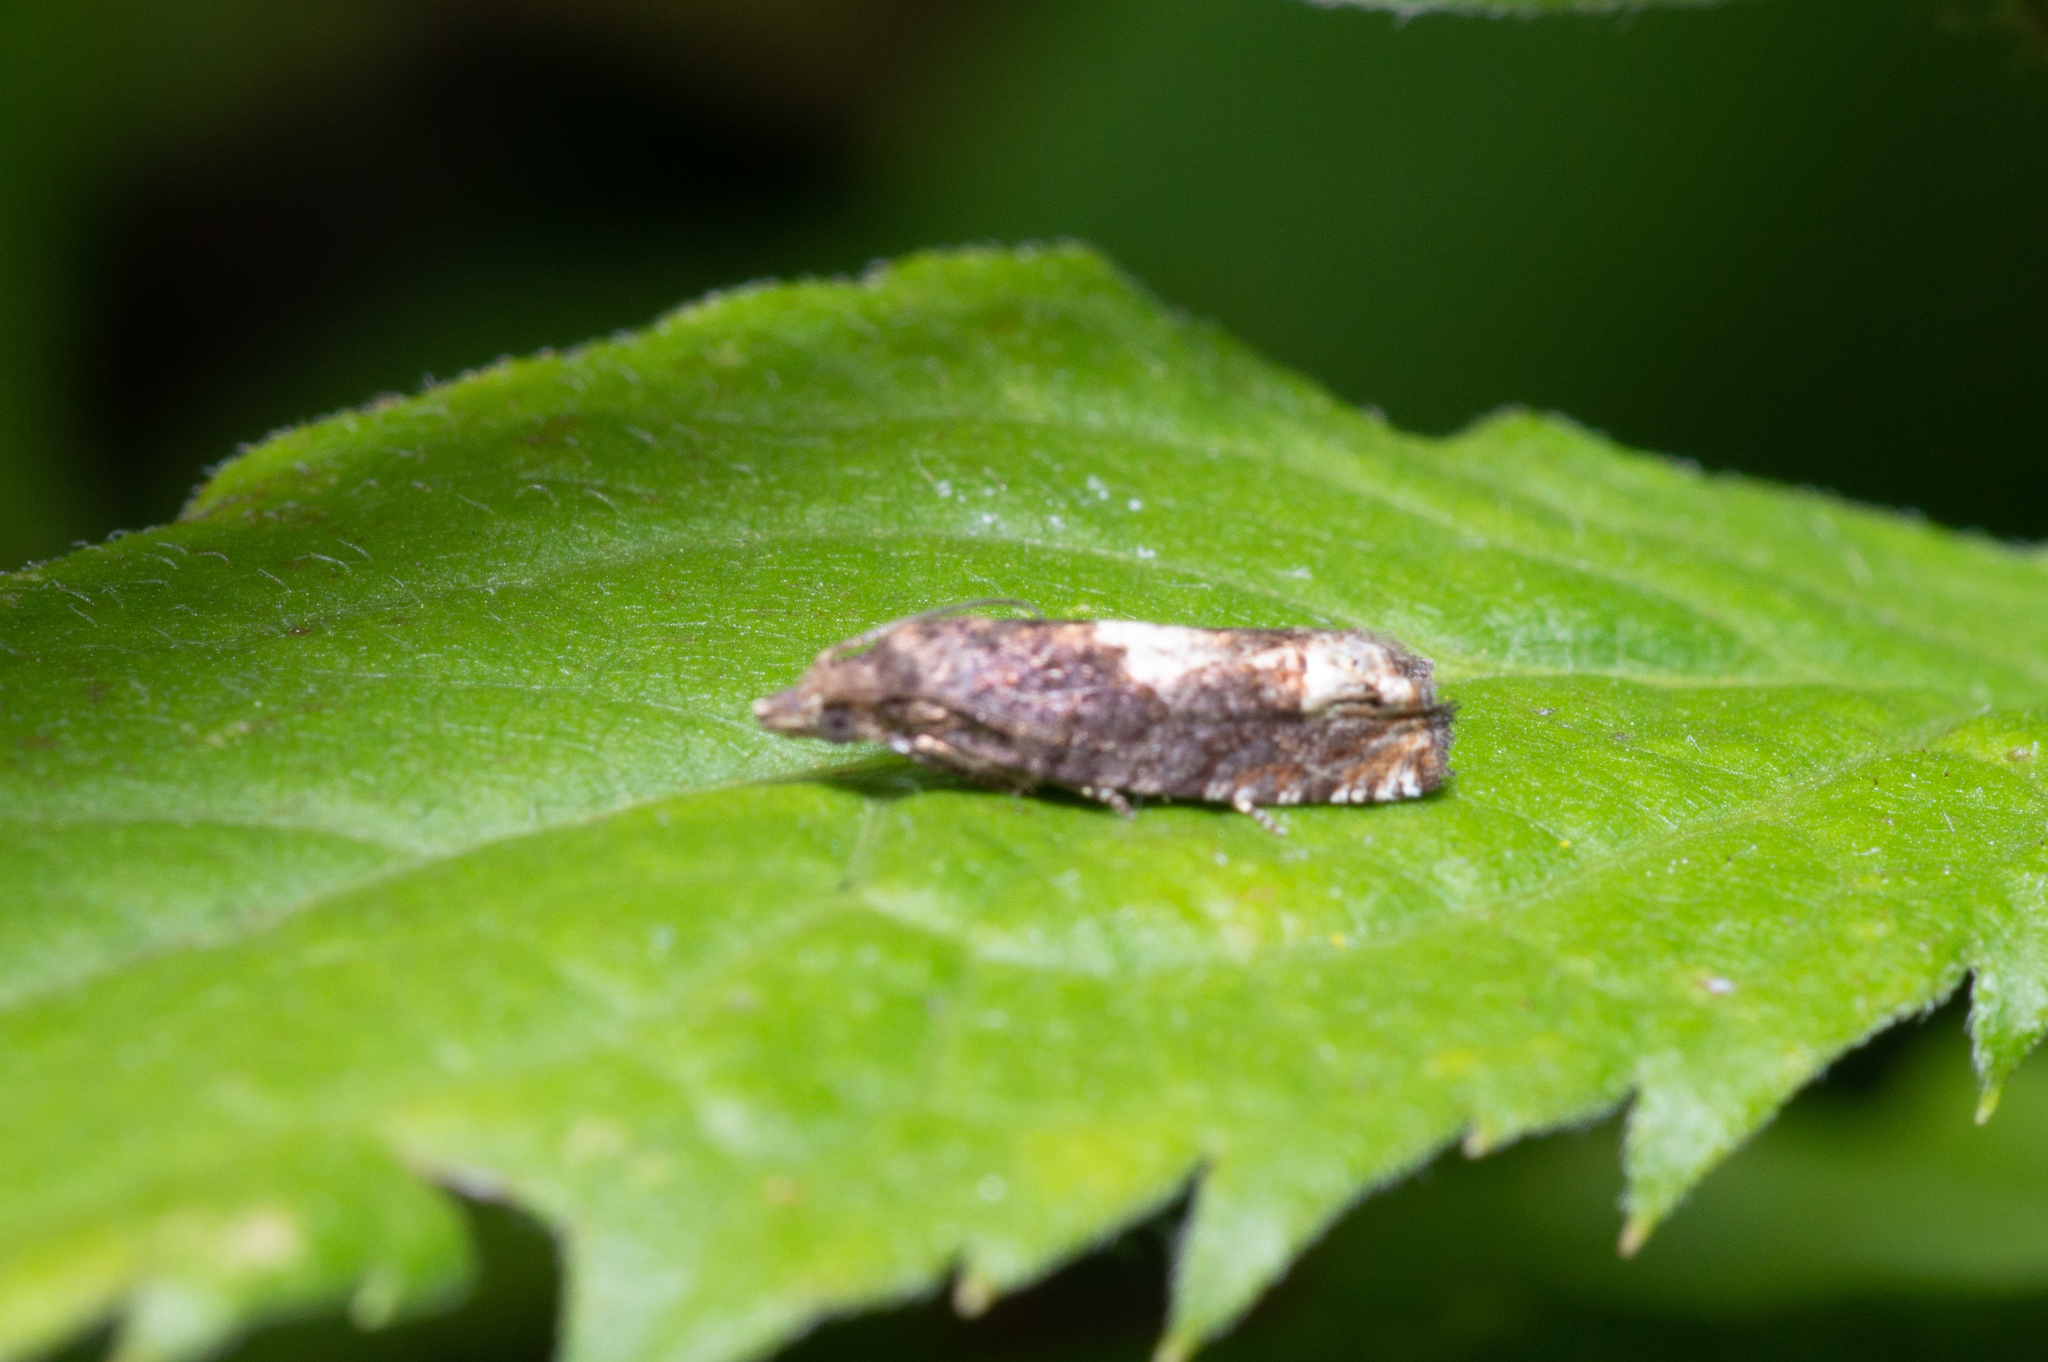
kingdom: Animalia
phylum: Arthropoda
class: Insecta
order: Lepidoptera
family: Tortricidae
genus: Eucosma
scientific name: Eucosma parmatana
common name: Aster eucosma moth
